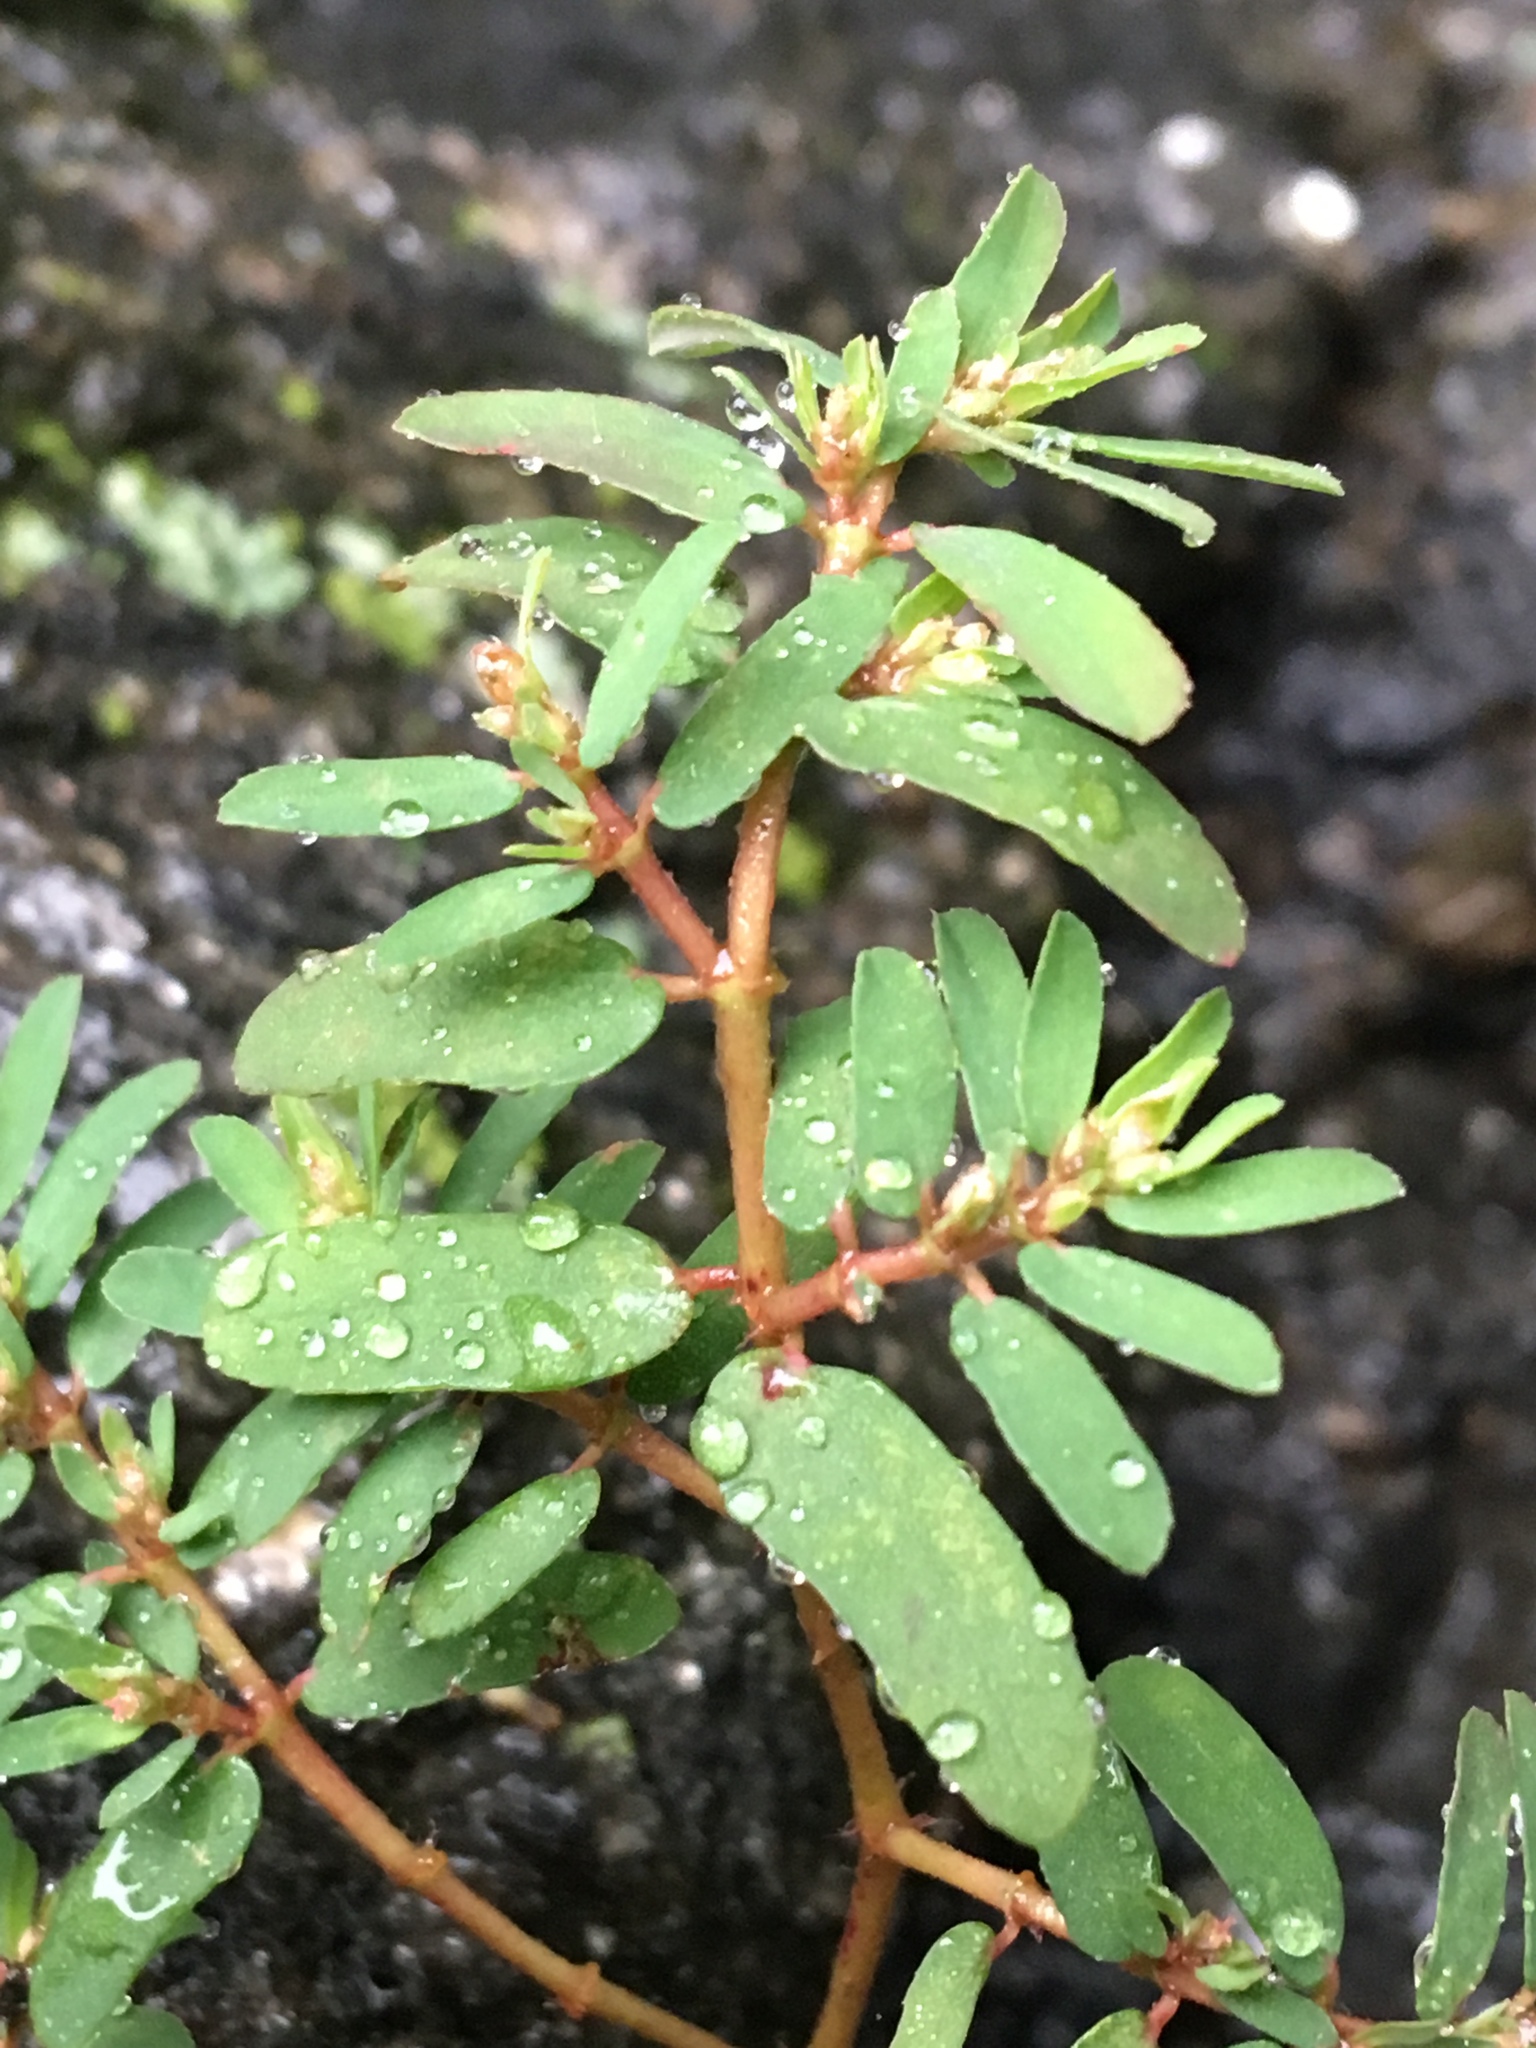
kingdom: Plantae
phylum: Tracheophyta
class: Magnoliopsida
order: Malpighiales
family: Euphorbiaceae
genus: Euphorbia
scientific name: Euphorbia maculata
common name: Spotted spurge
